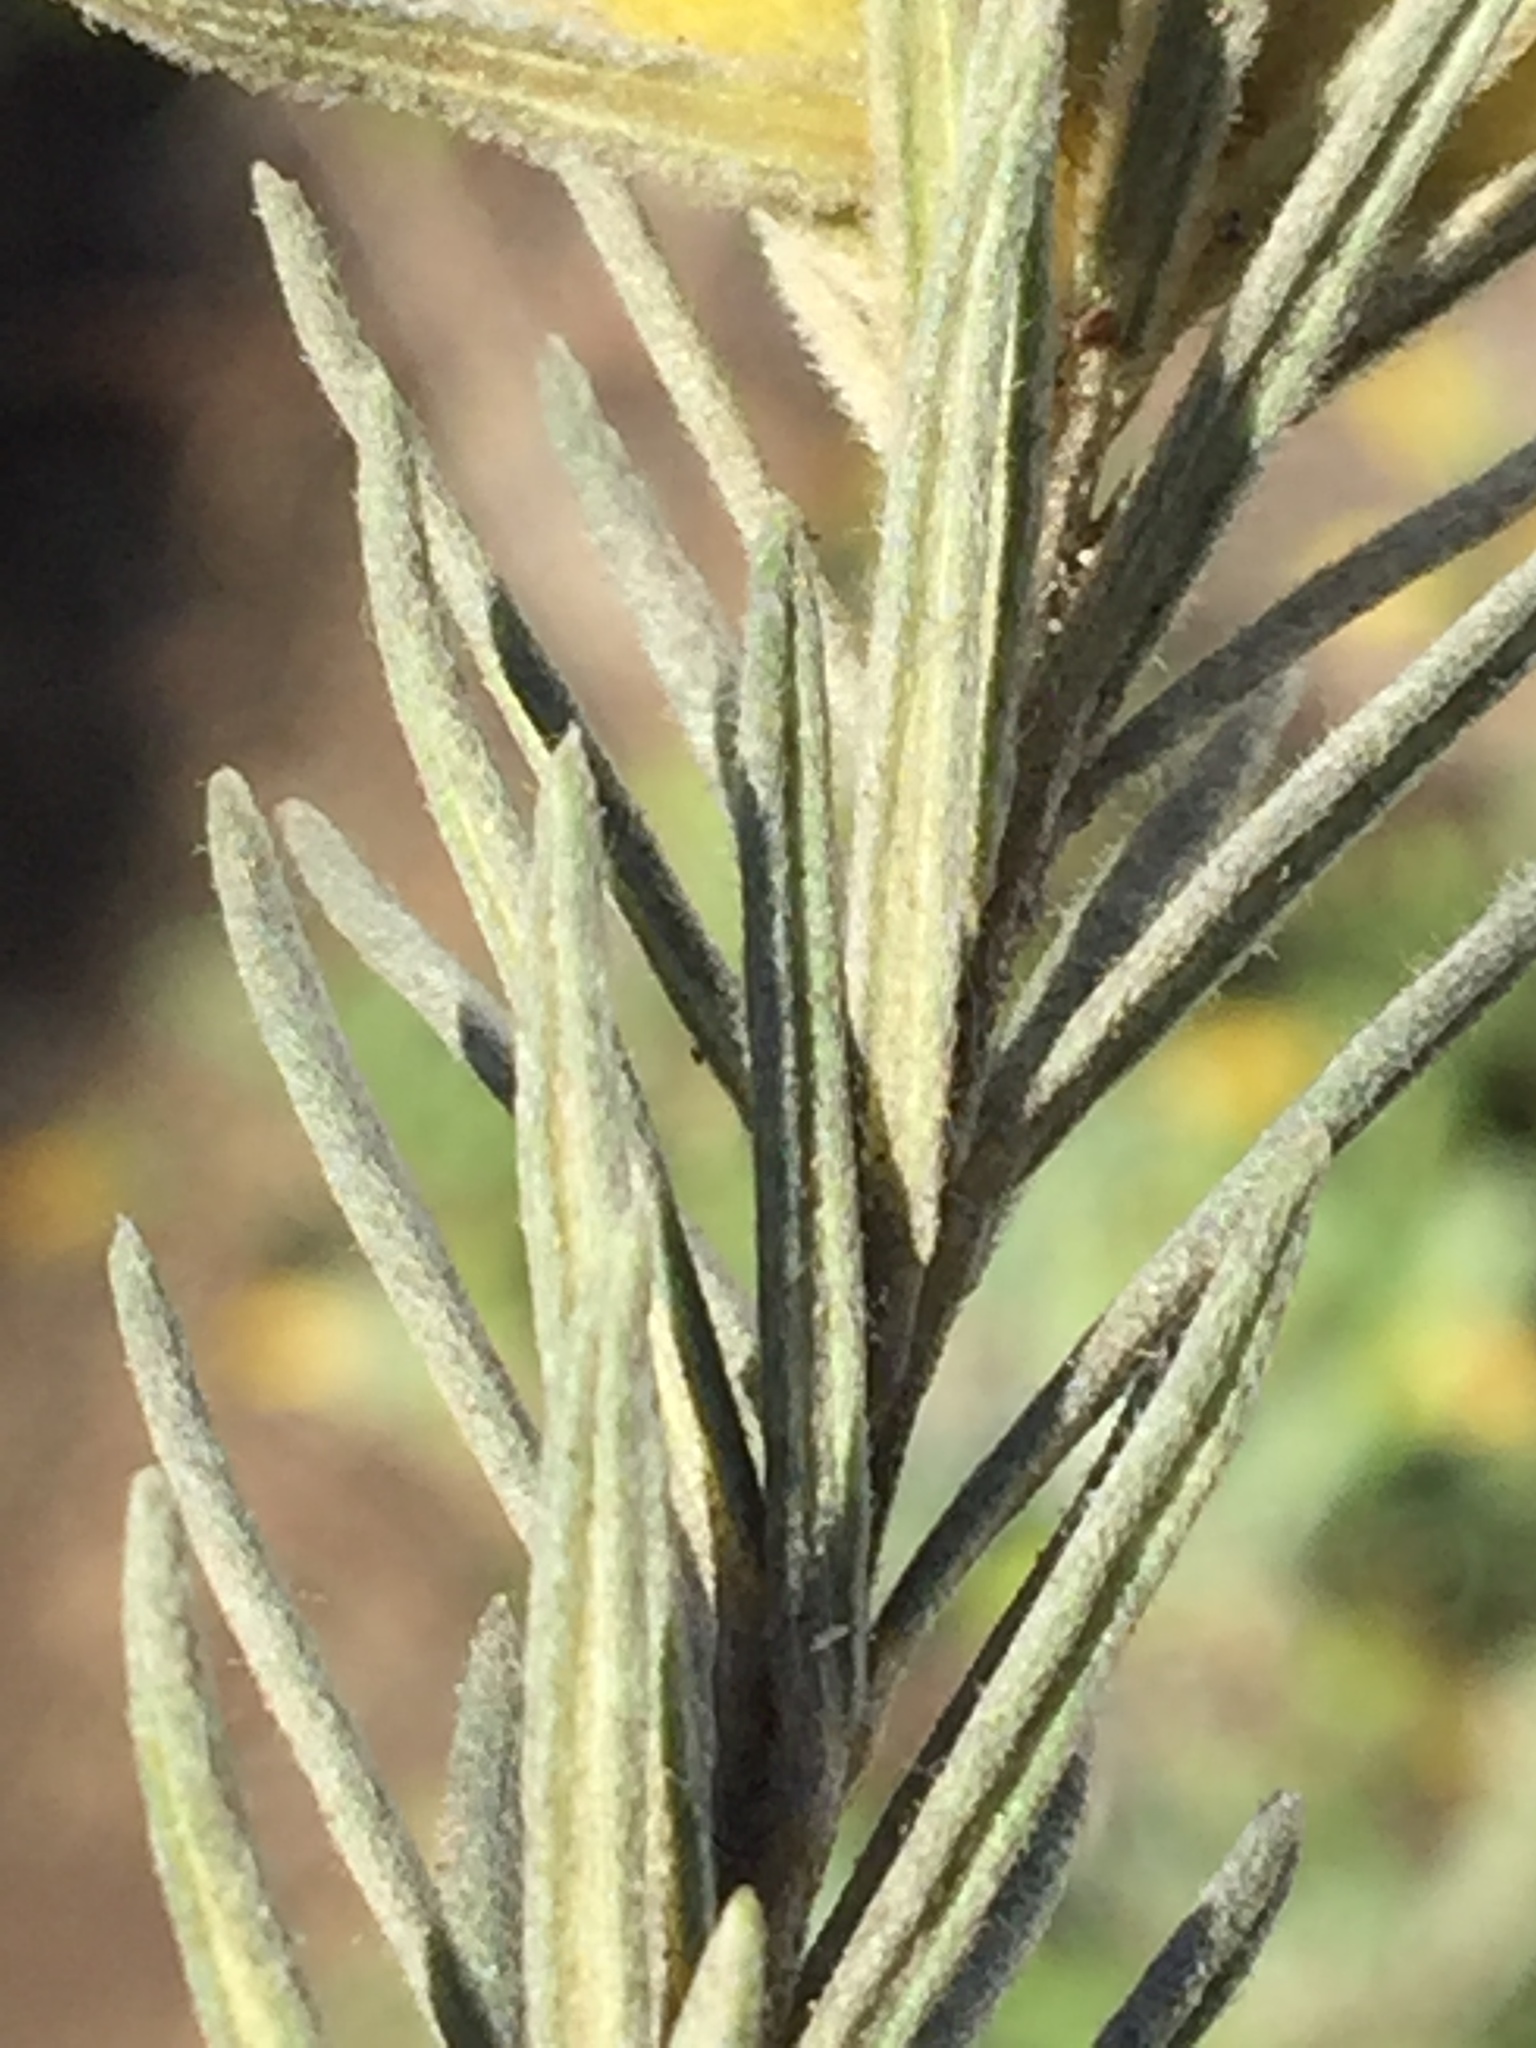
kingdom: Plantae
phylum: Tracheophyta
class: Magnoliopsida
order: Rosales
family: Rhamnaceae
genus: Phylica
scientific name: Phylica velutina
